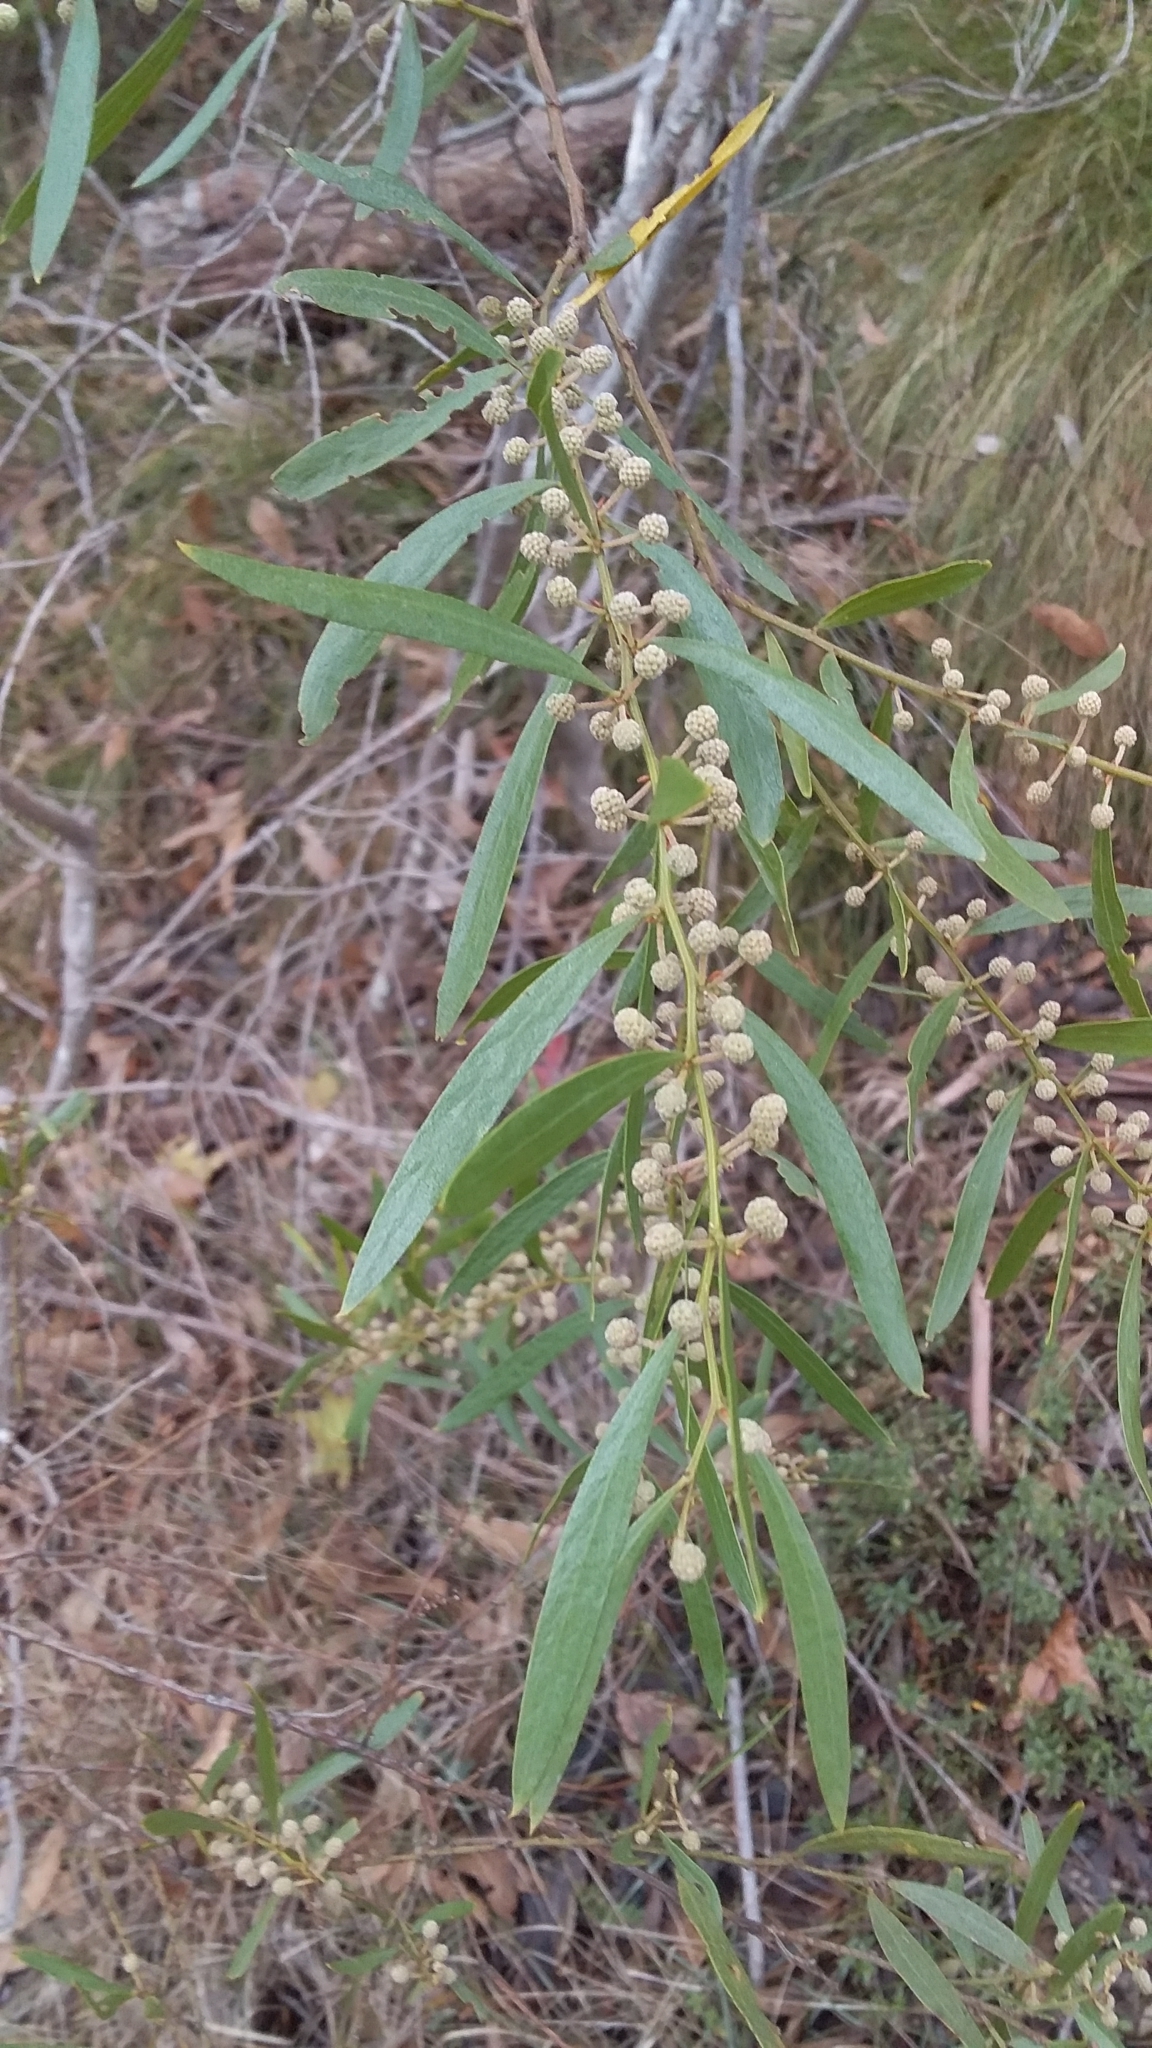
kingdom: Plantae
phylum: Tracheophyta
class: Magnoliopsida
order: Fabales
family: Fabaceae
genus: Acacia
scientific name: Acacia verniciflua
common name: Varnish wattle
